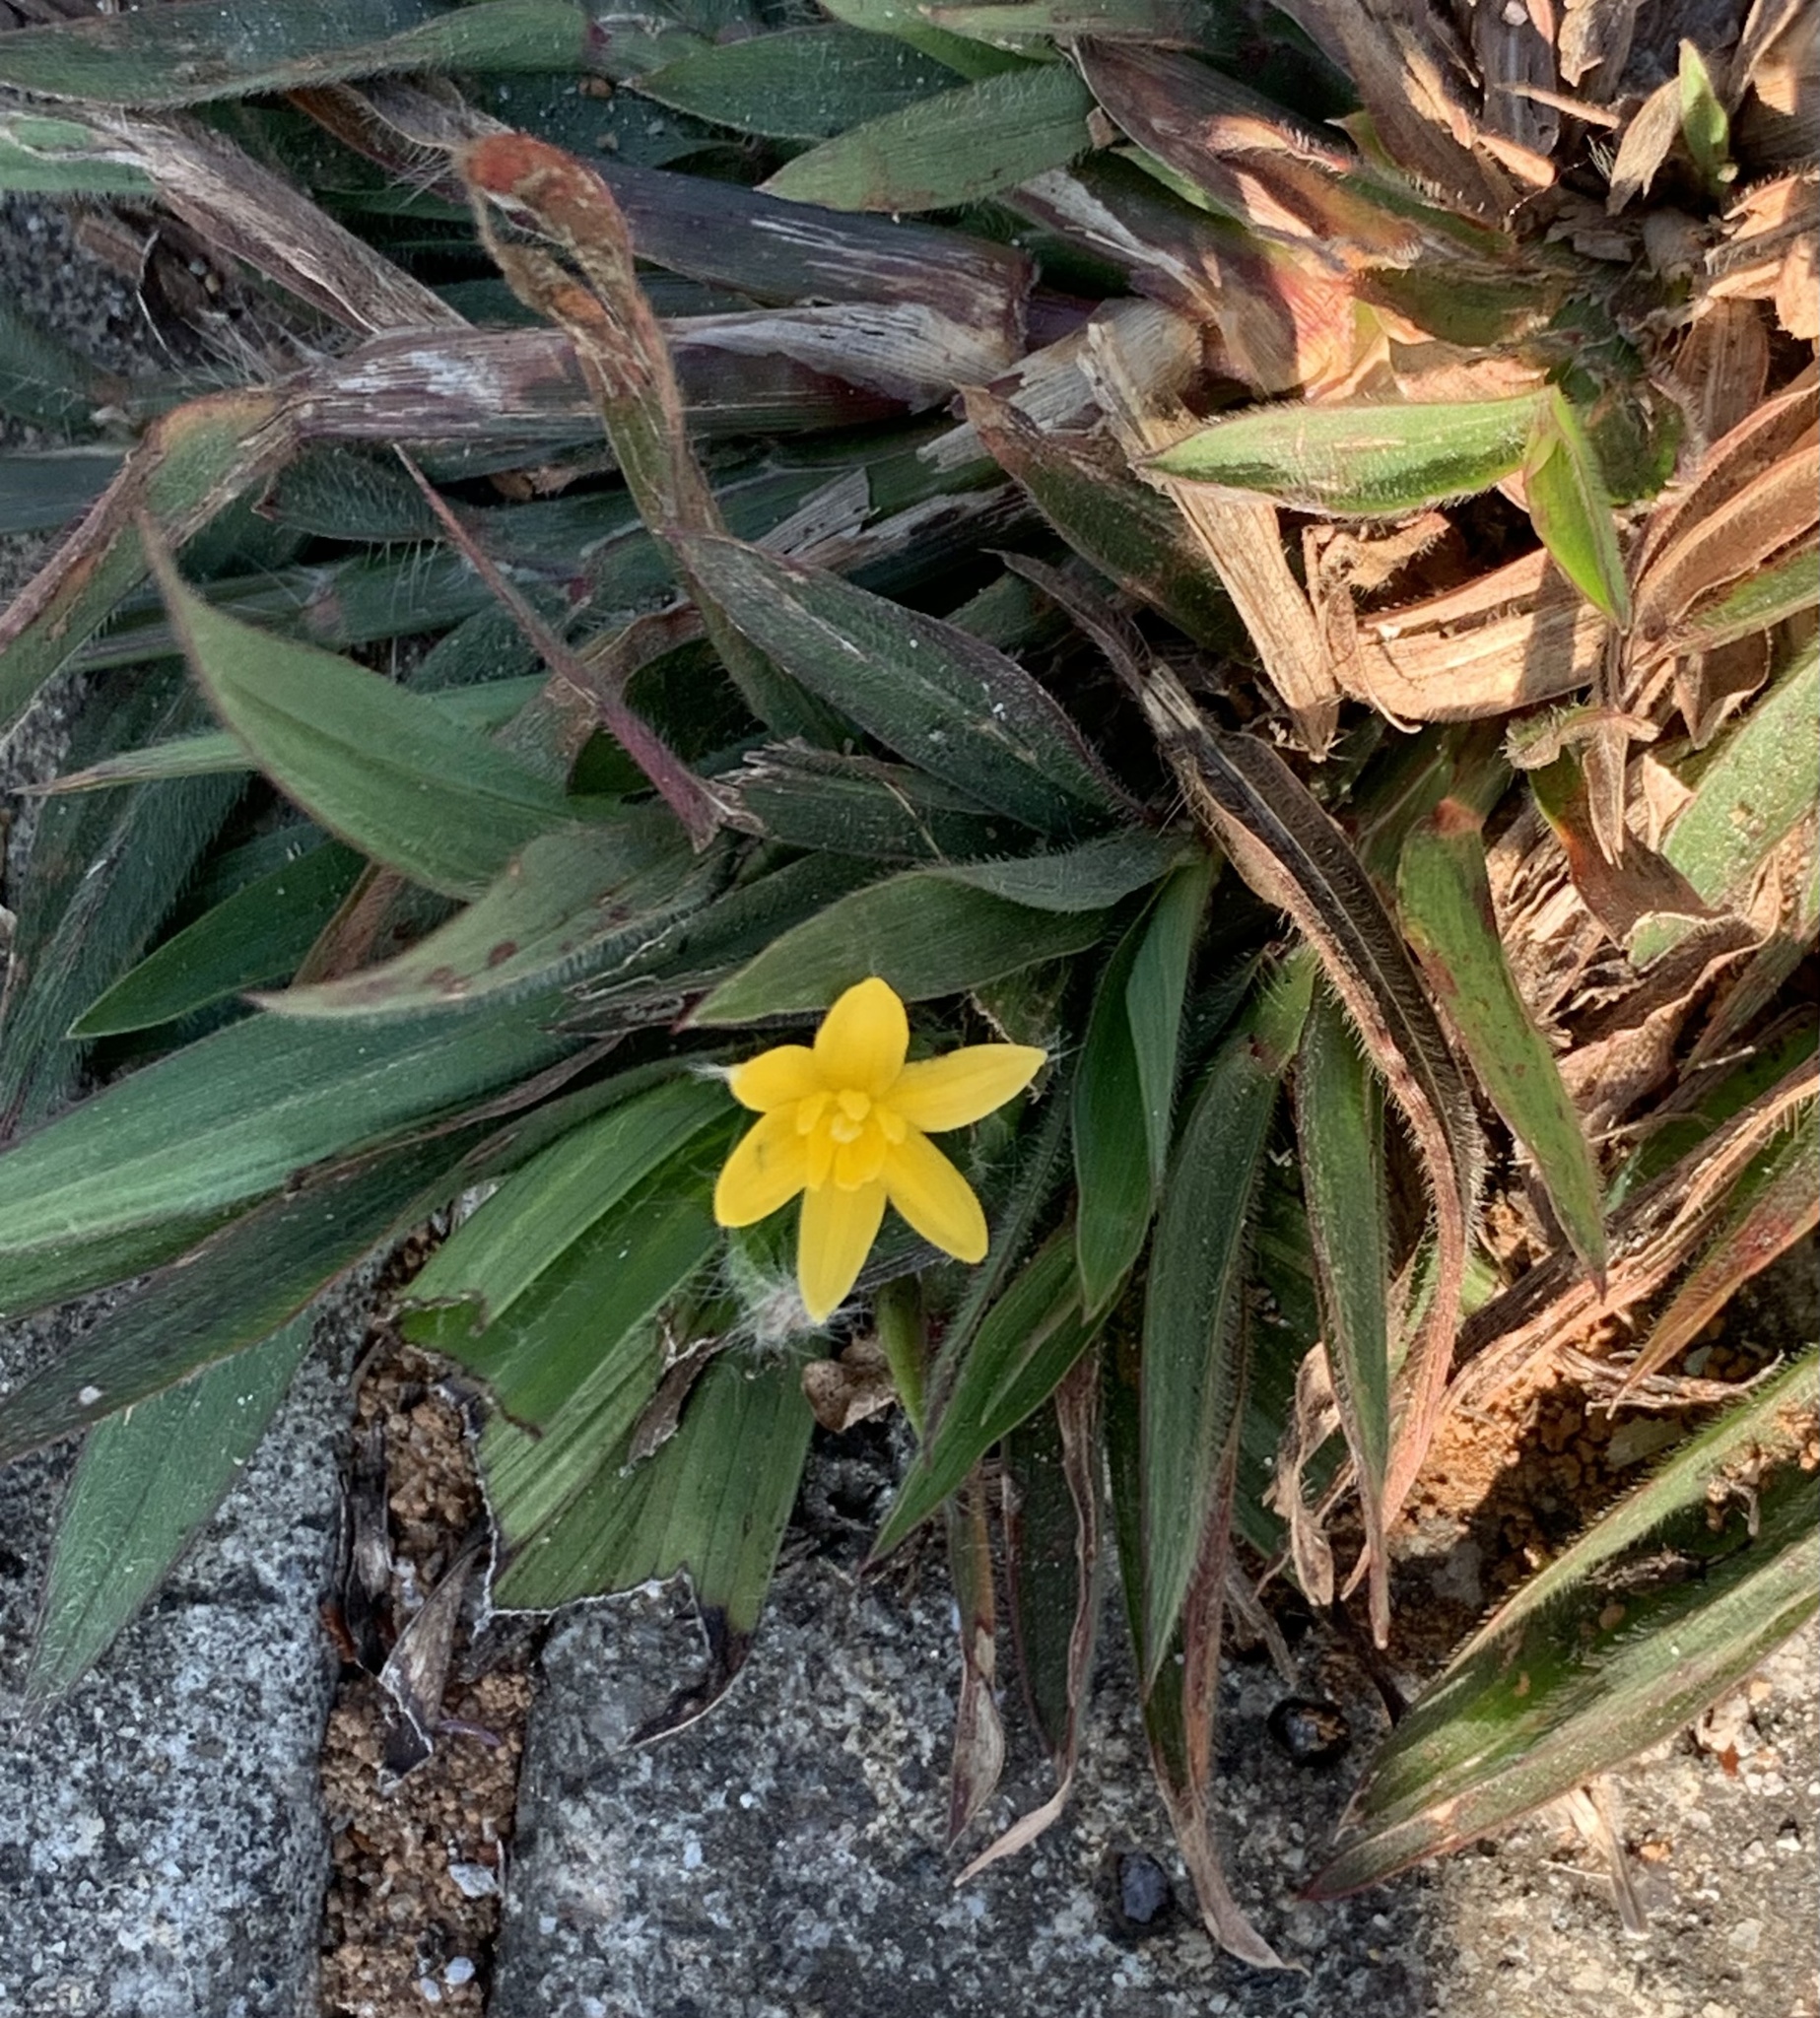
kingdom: Plantae
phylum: Tracheophyta
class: Liliopsida
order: Asparagales
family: Hypoxidaceae
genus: Curculigo
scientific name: Curculigo orchioides
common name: Golden eye-grass
